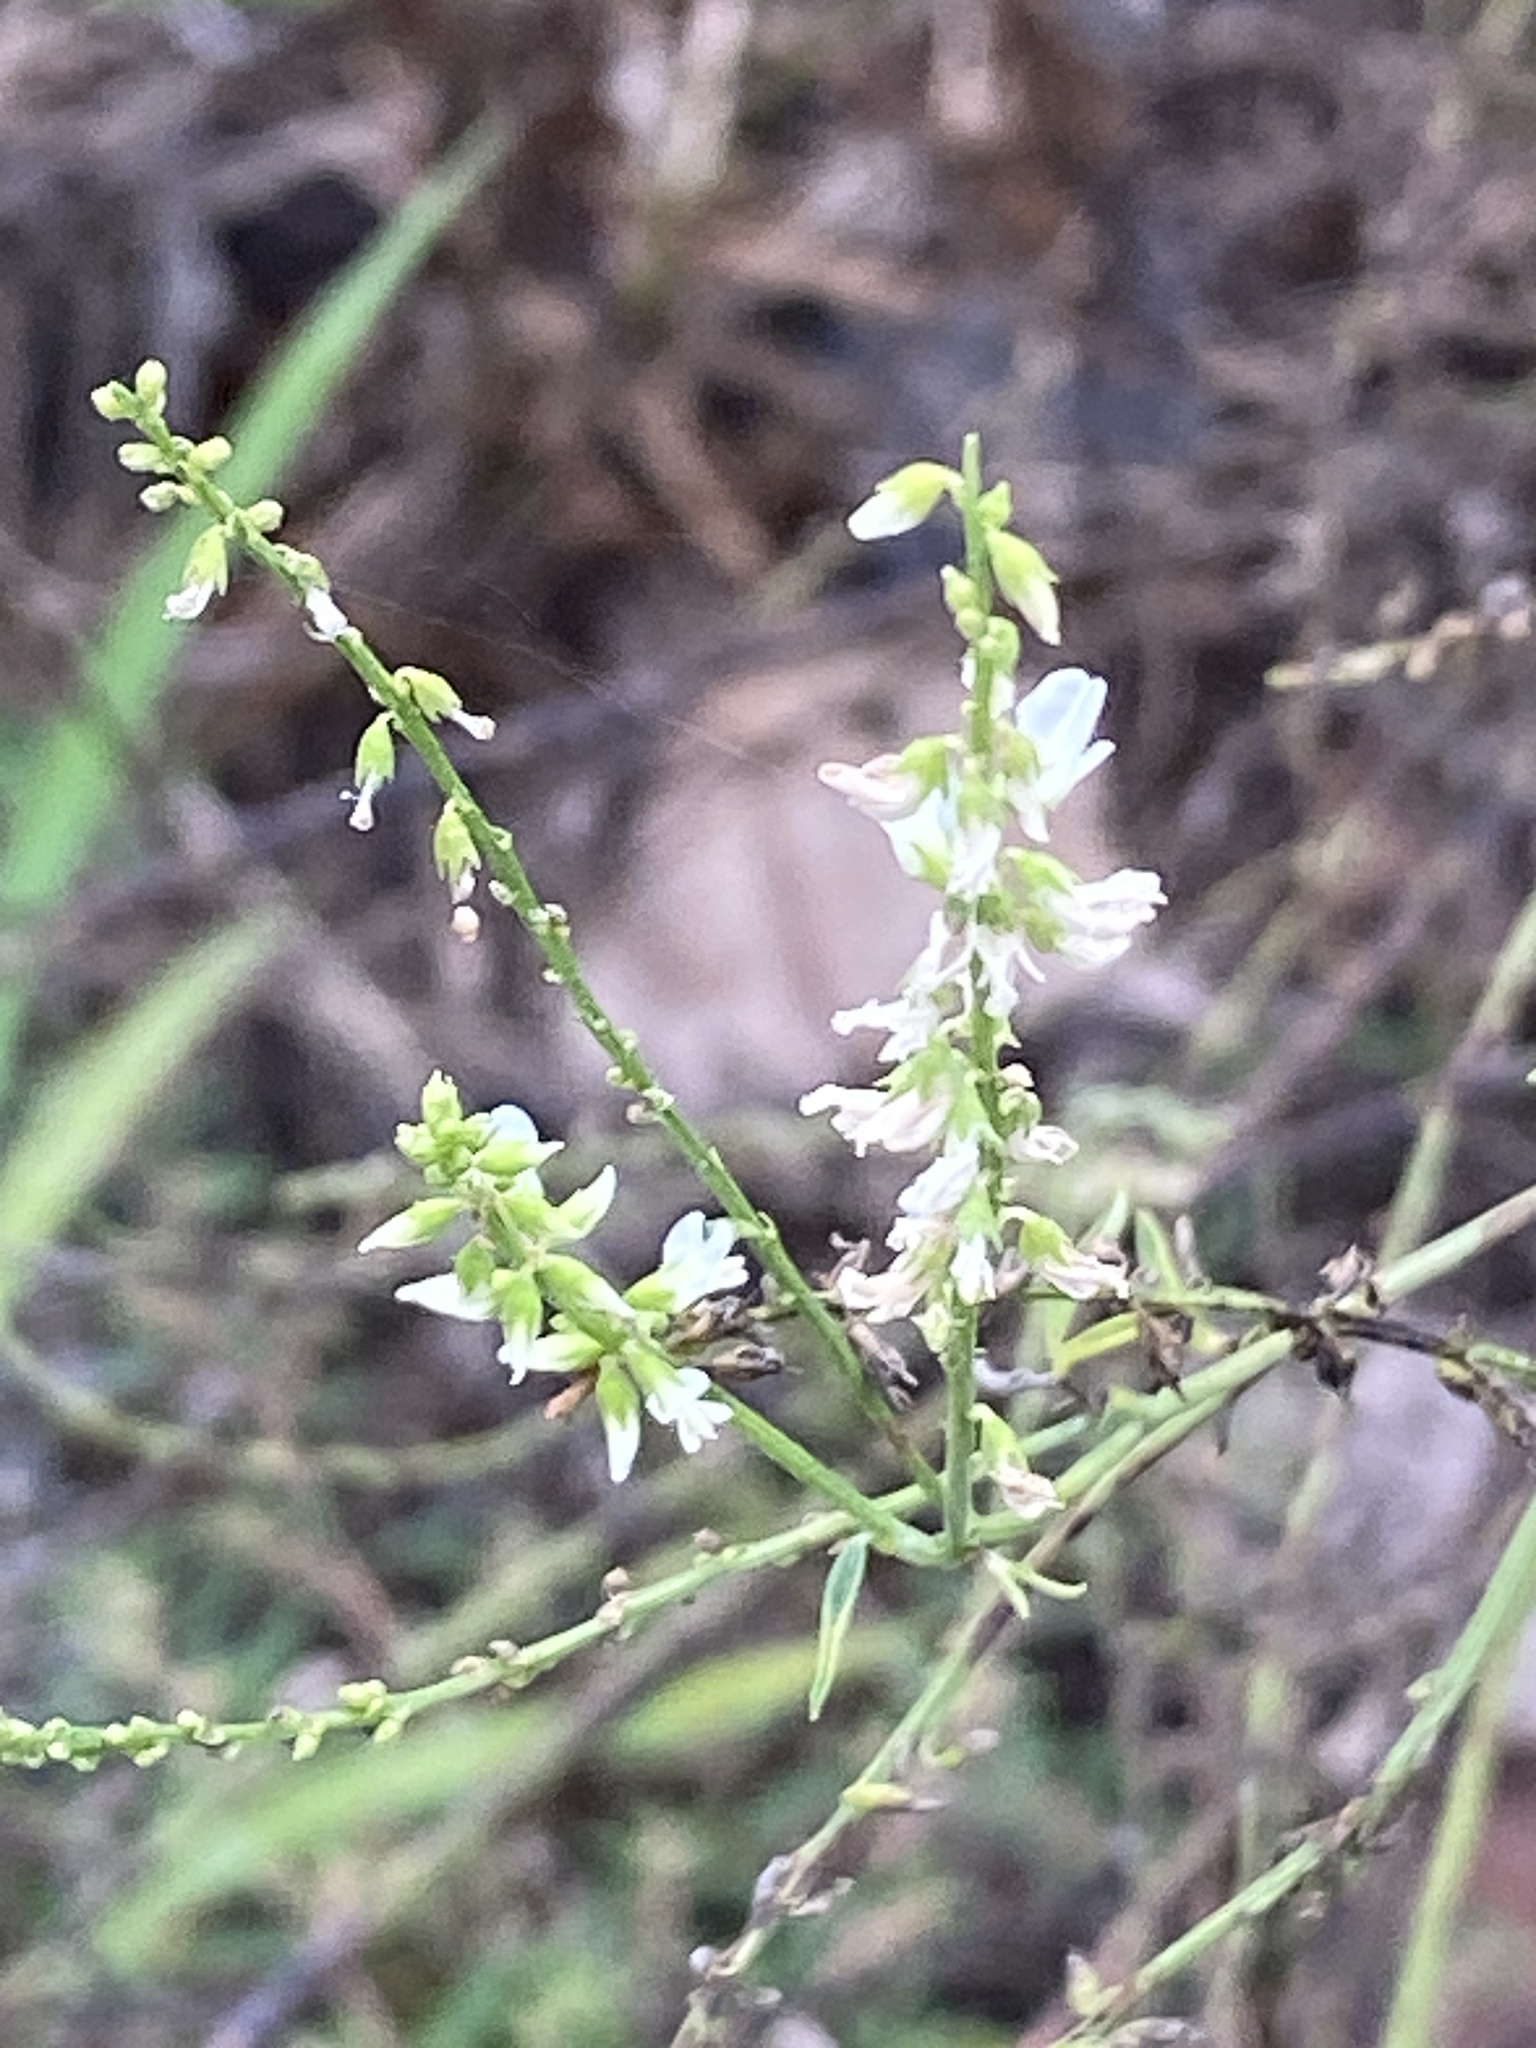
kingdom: Plantae
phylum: Tracheophyta
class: Magnoliopsida
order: Fabales
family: Fabaceae
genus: Melilotus
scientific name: Melilotus albus
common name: White melilot
